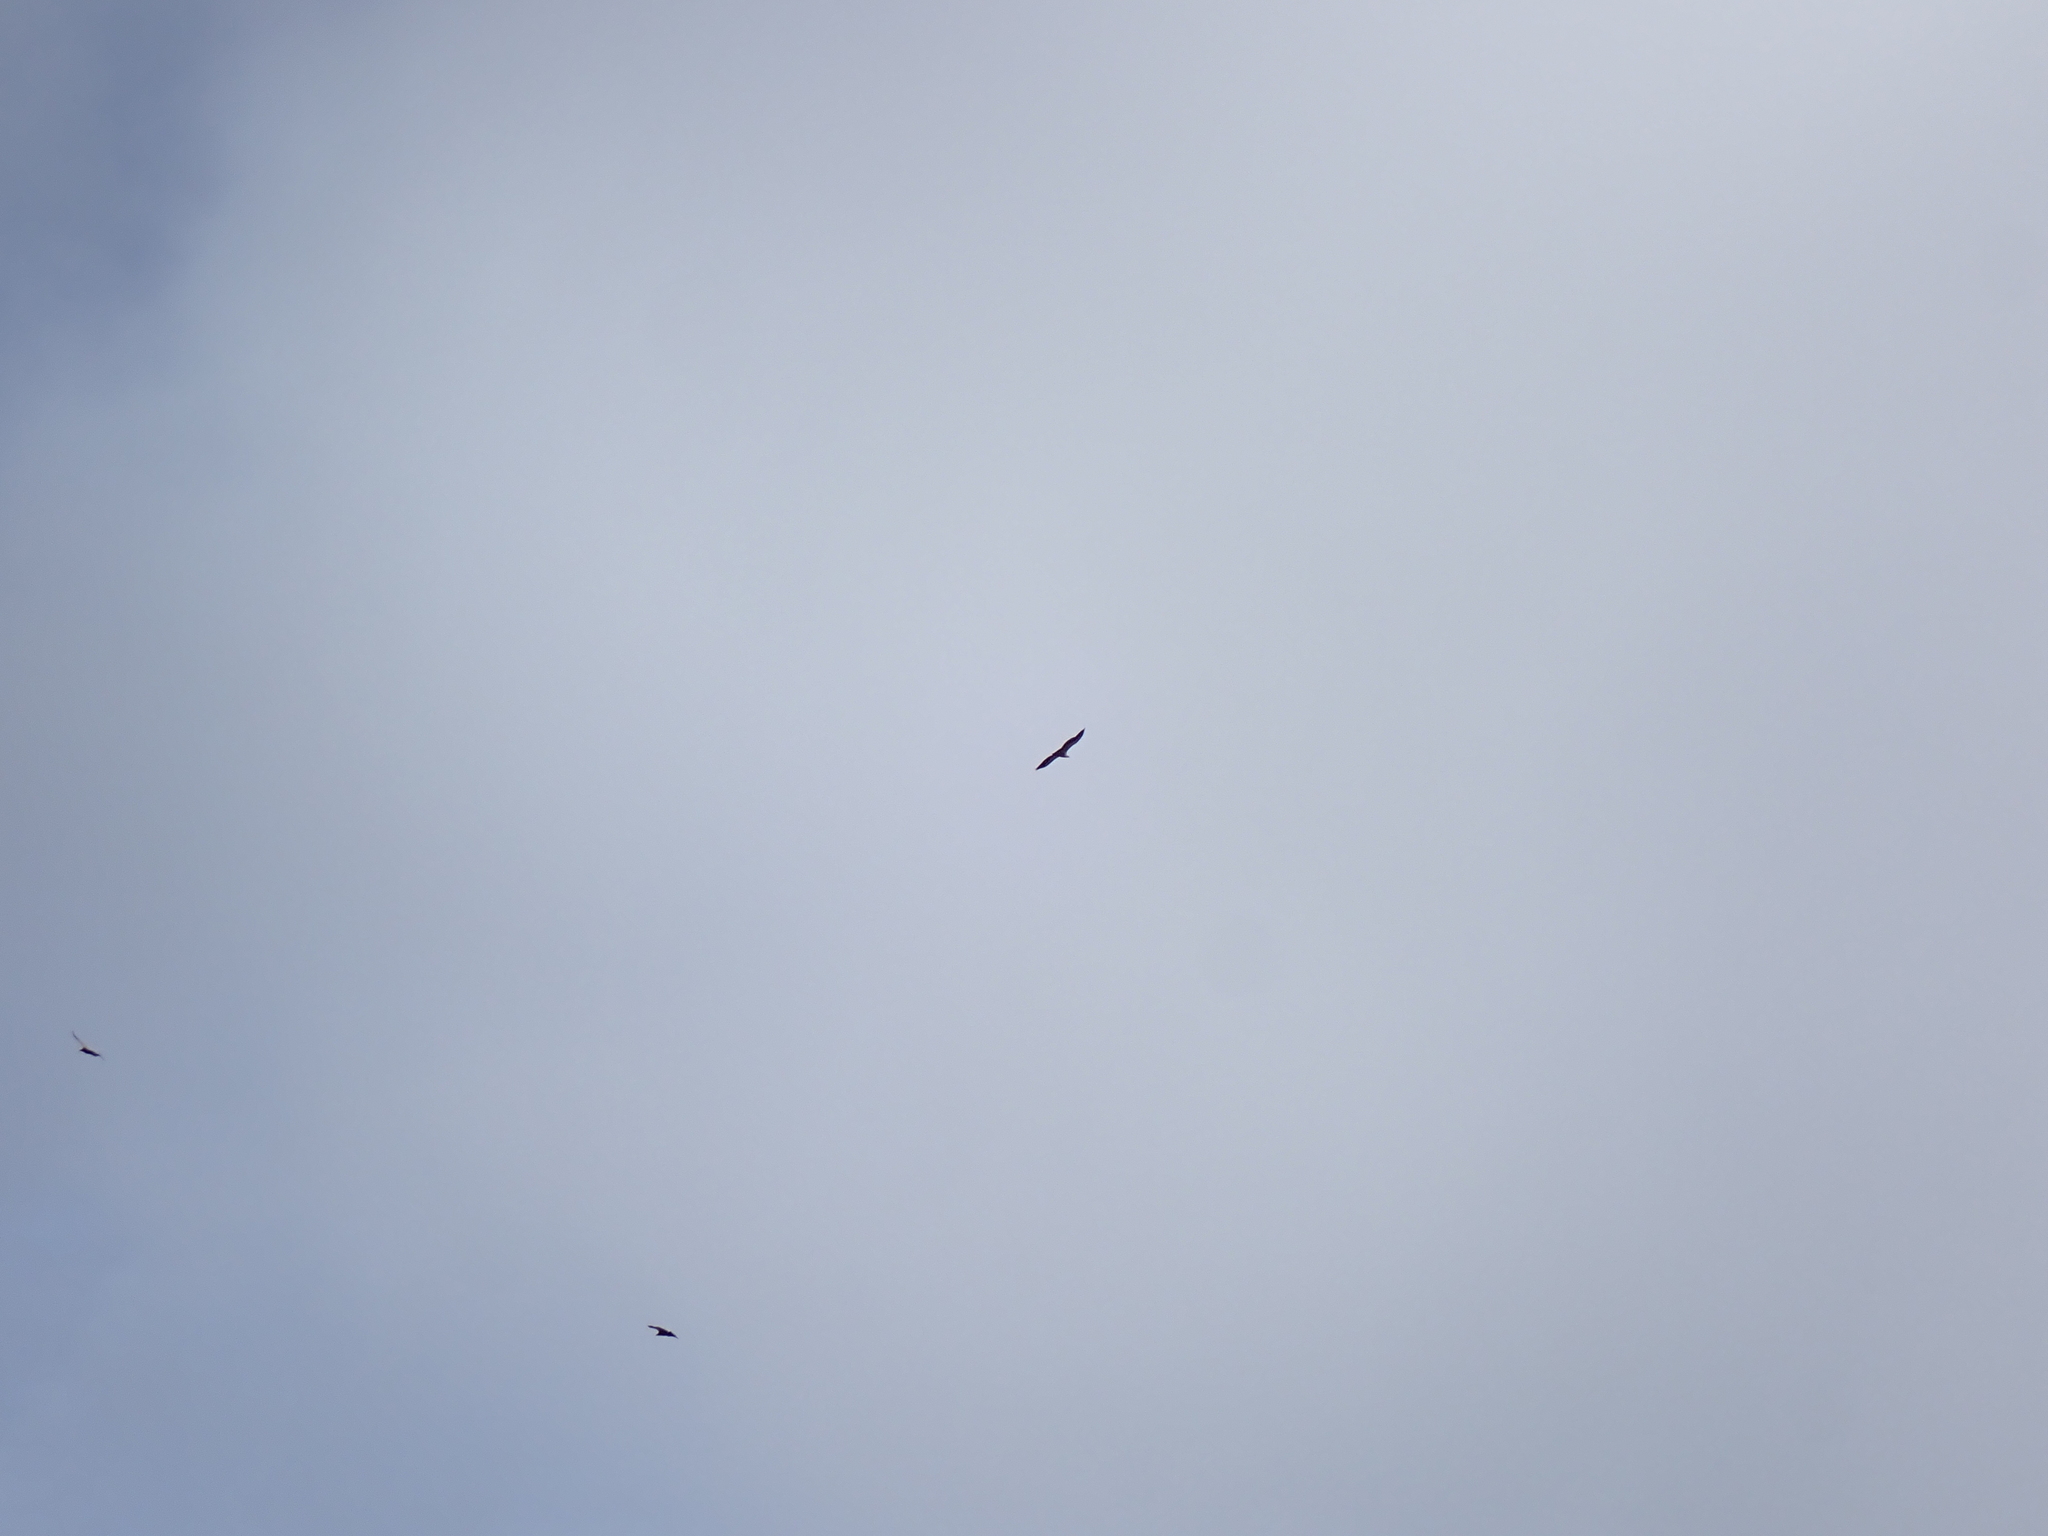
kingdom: Animalia
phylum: Chordata
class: Aves
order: Accipitriformes
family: Accipitridae
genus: Gyps
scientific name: Gyps fulvus
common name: Griffon vulture
